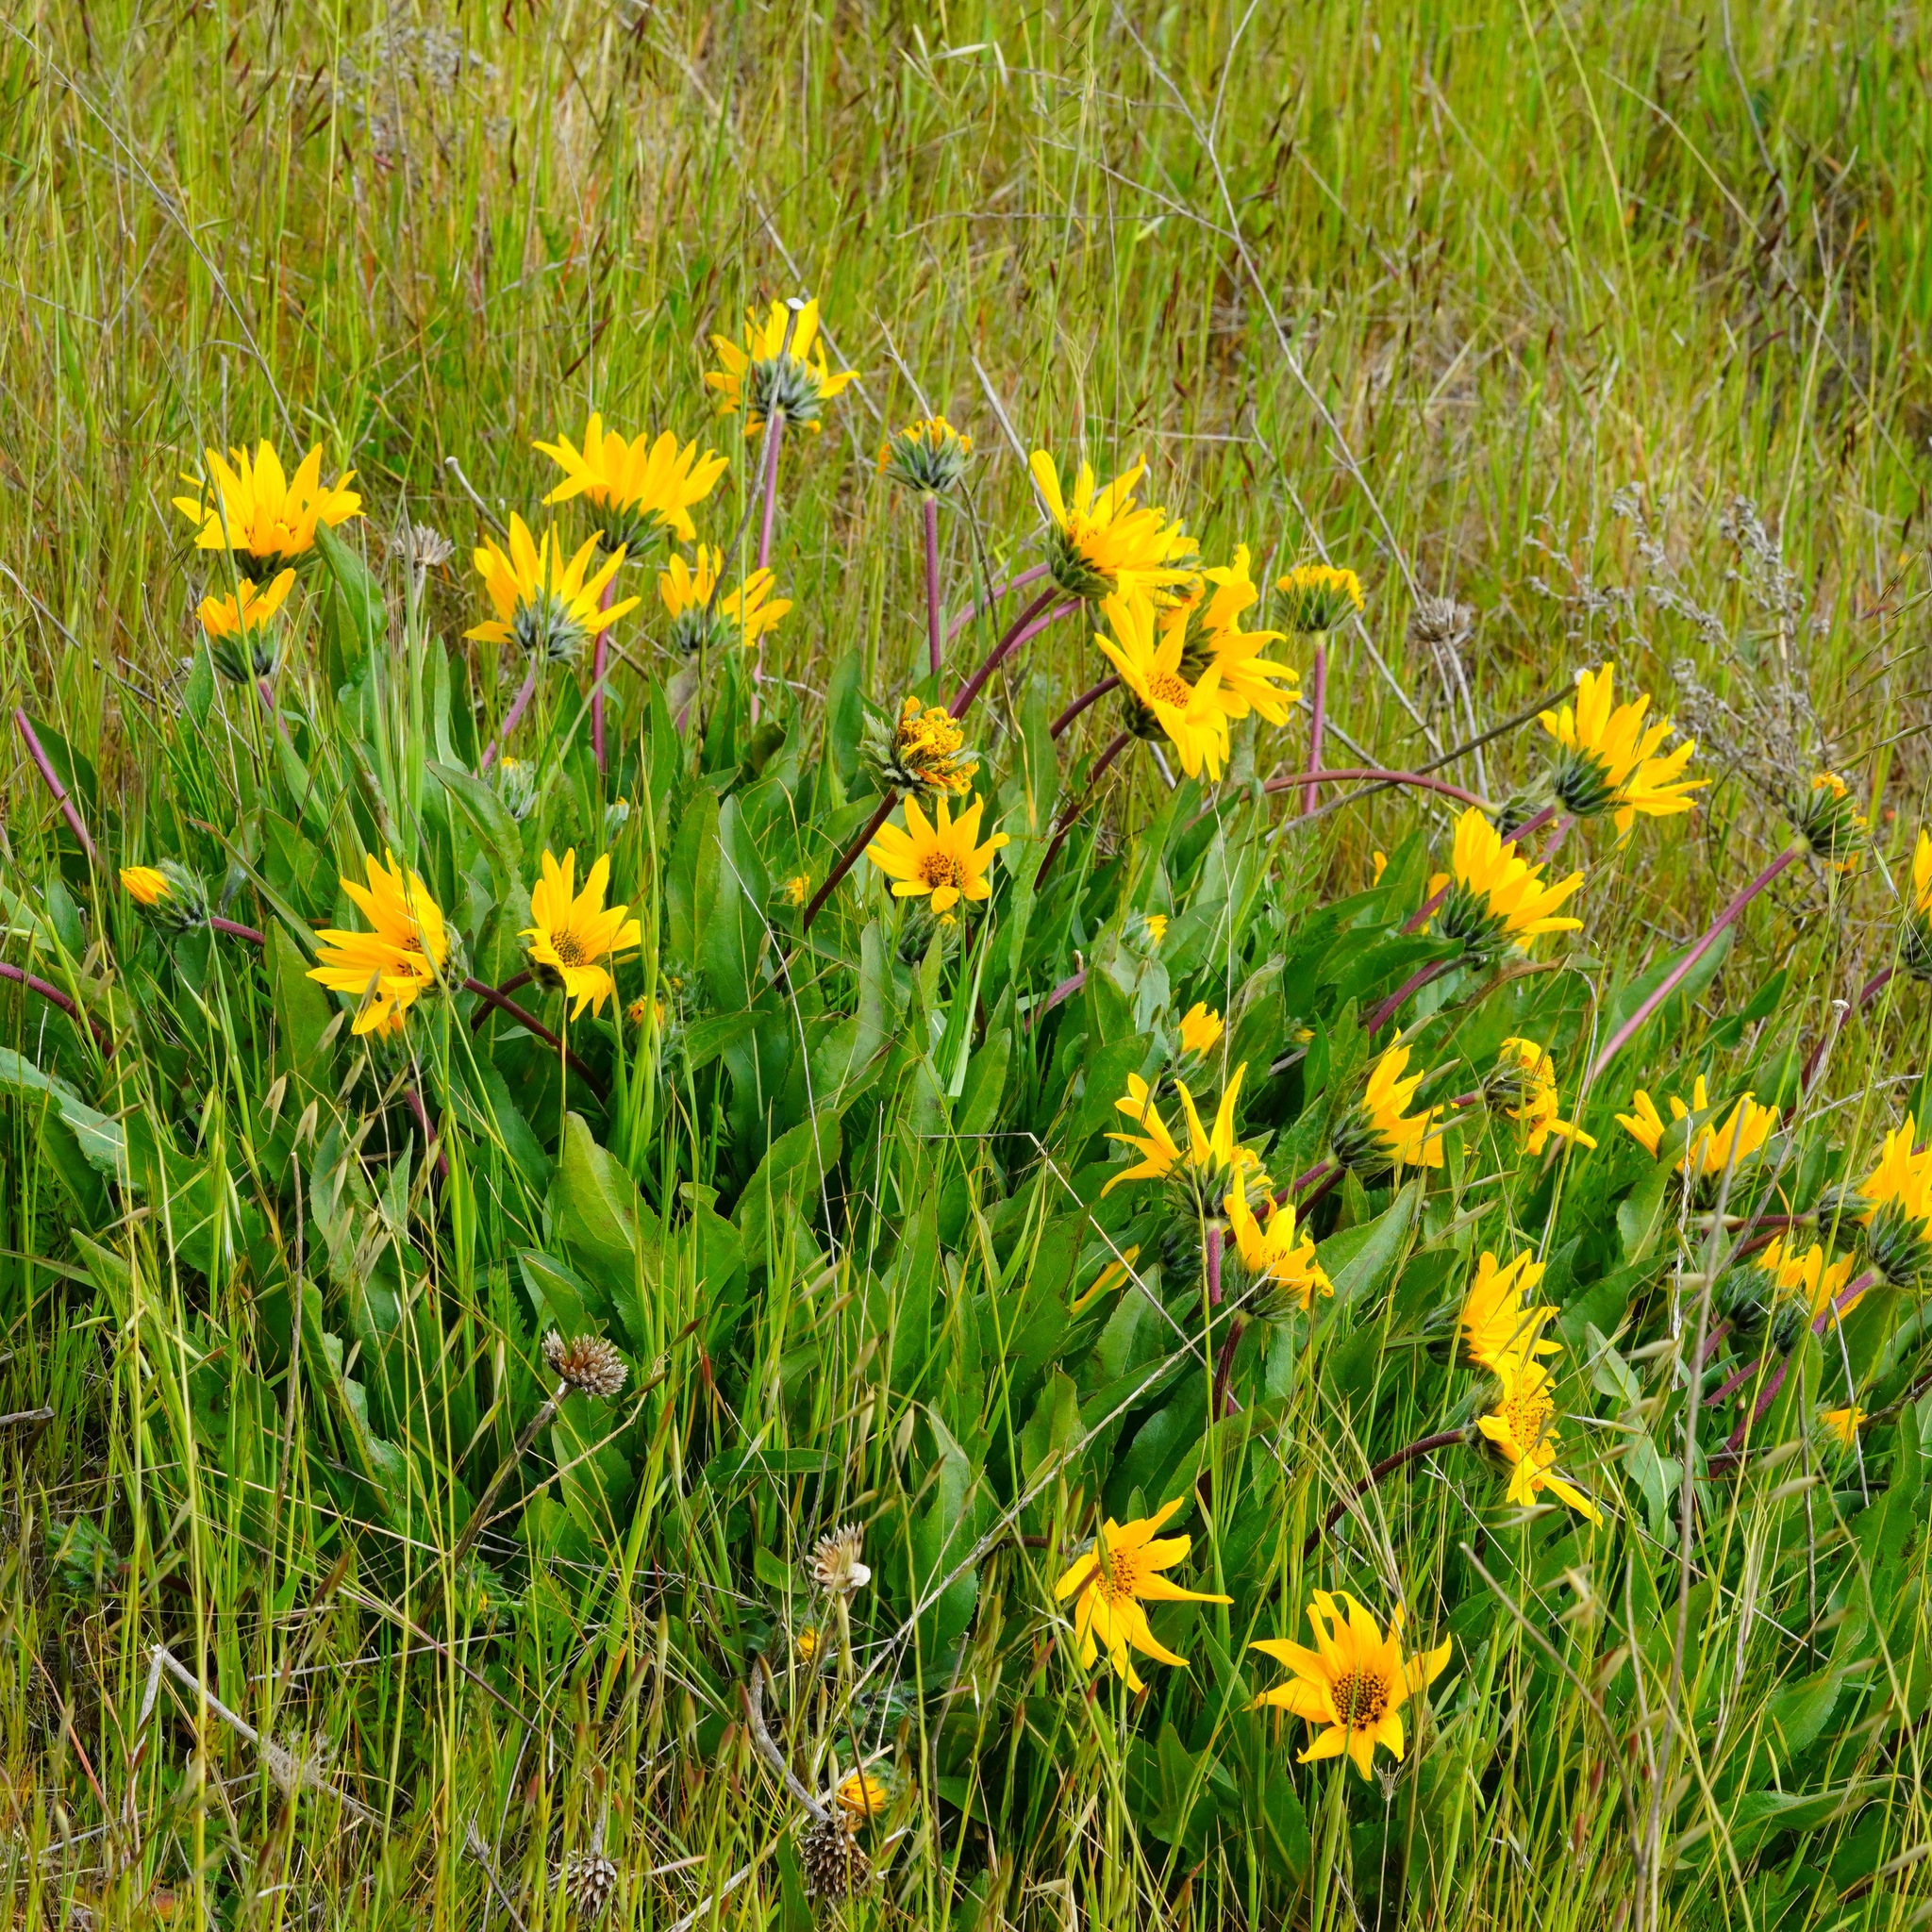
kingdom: Plantae
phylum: Tracheophyta
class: Magnoliopsida
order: Asterales
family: Asteraceae
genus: Wyethia
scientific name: Wyethia angustifolia
